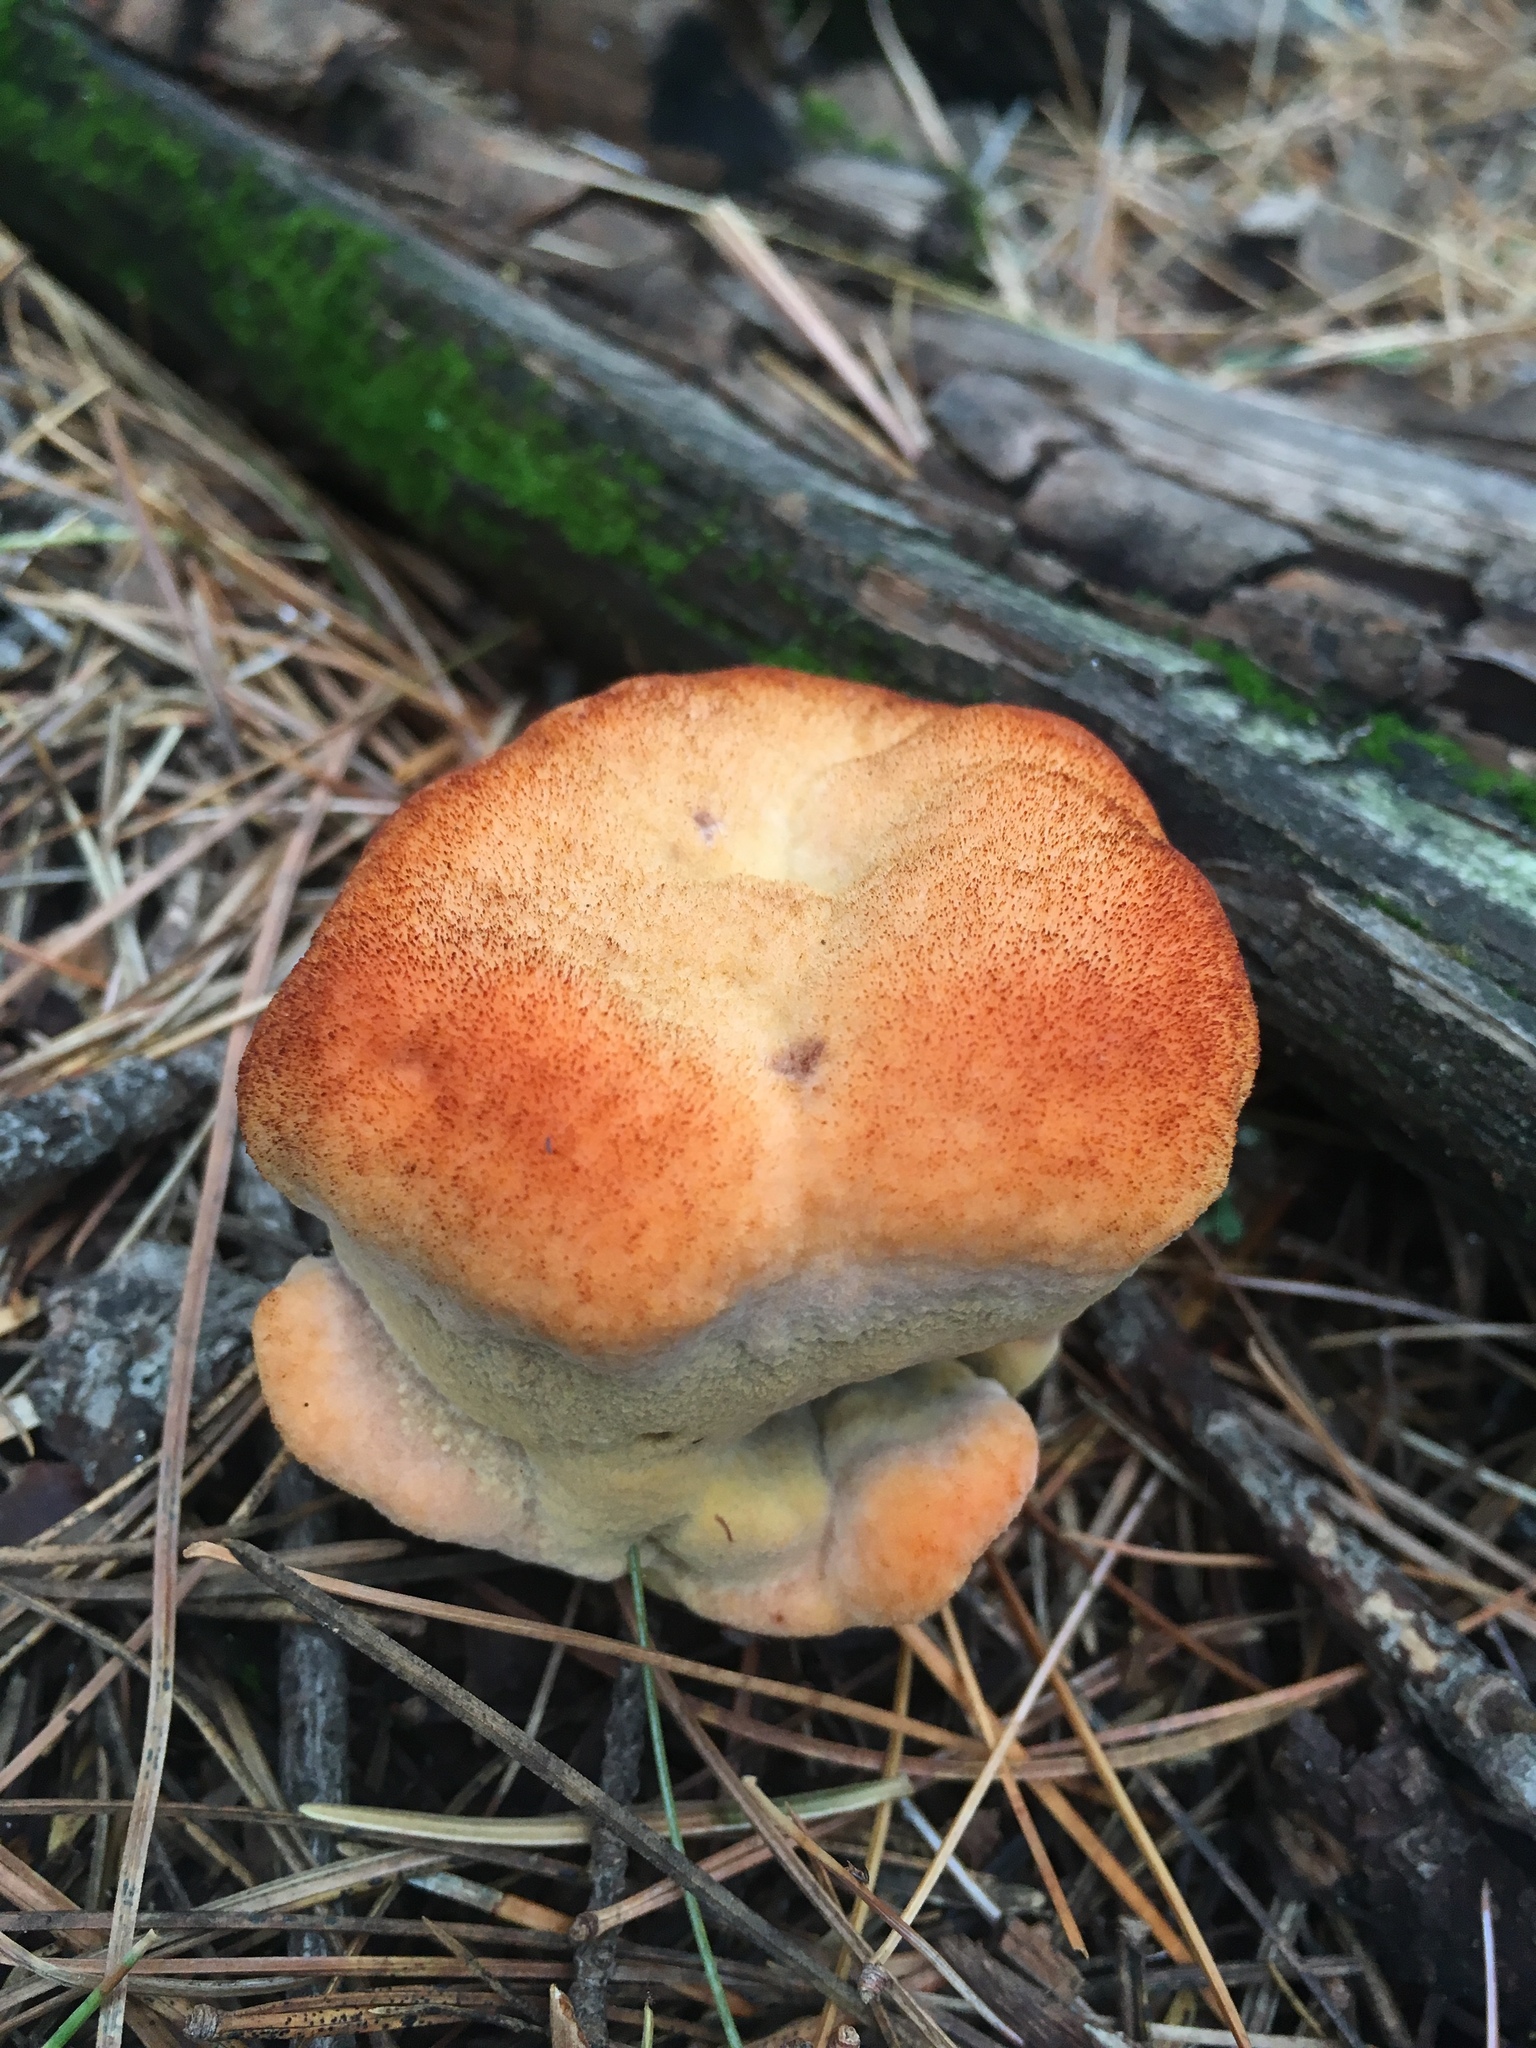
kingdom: Fungi
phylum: Basidiomycota
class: Agaricomycetes
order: Polyporales
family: Laetiporaceae
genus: Phaeolus
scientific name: Phaeolus schweinitzii
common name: Dyer's mazegill
